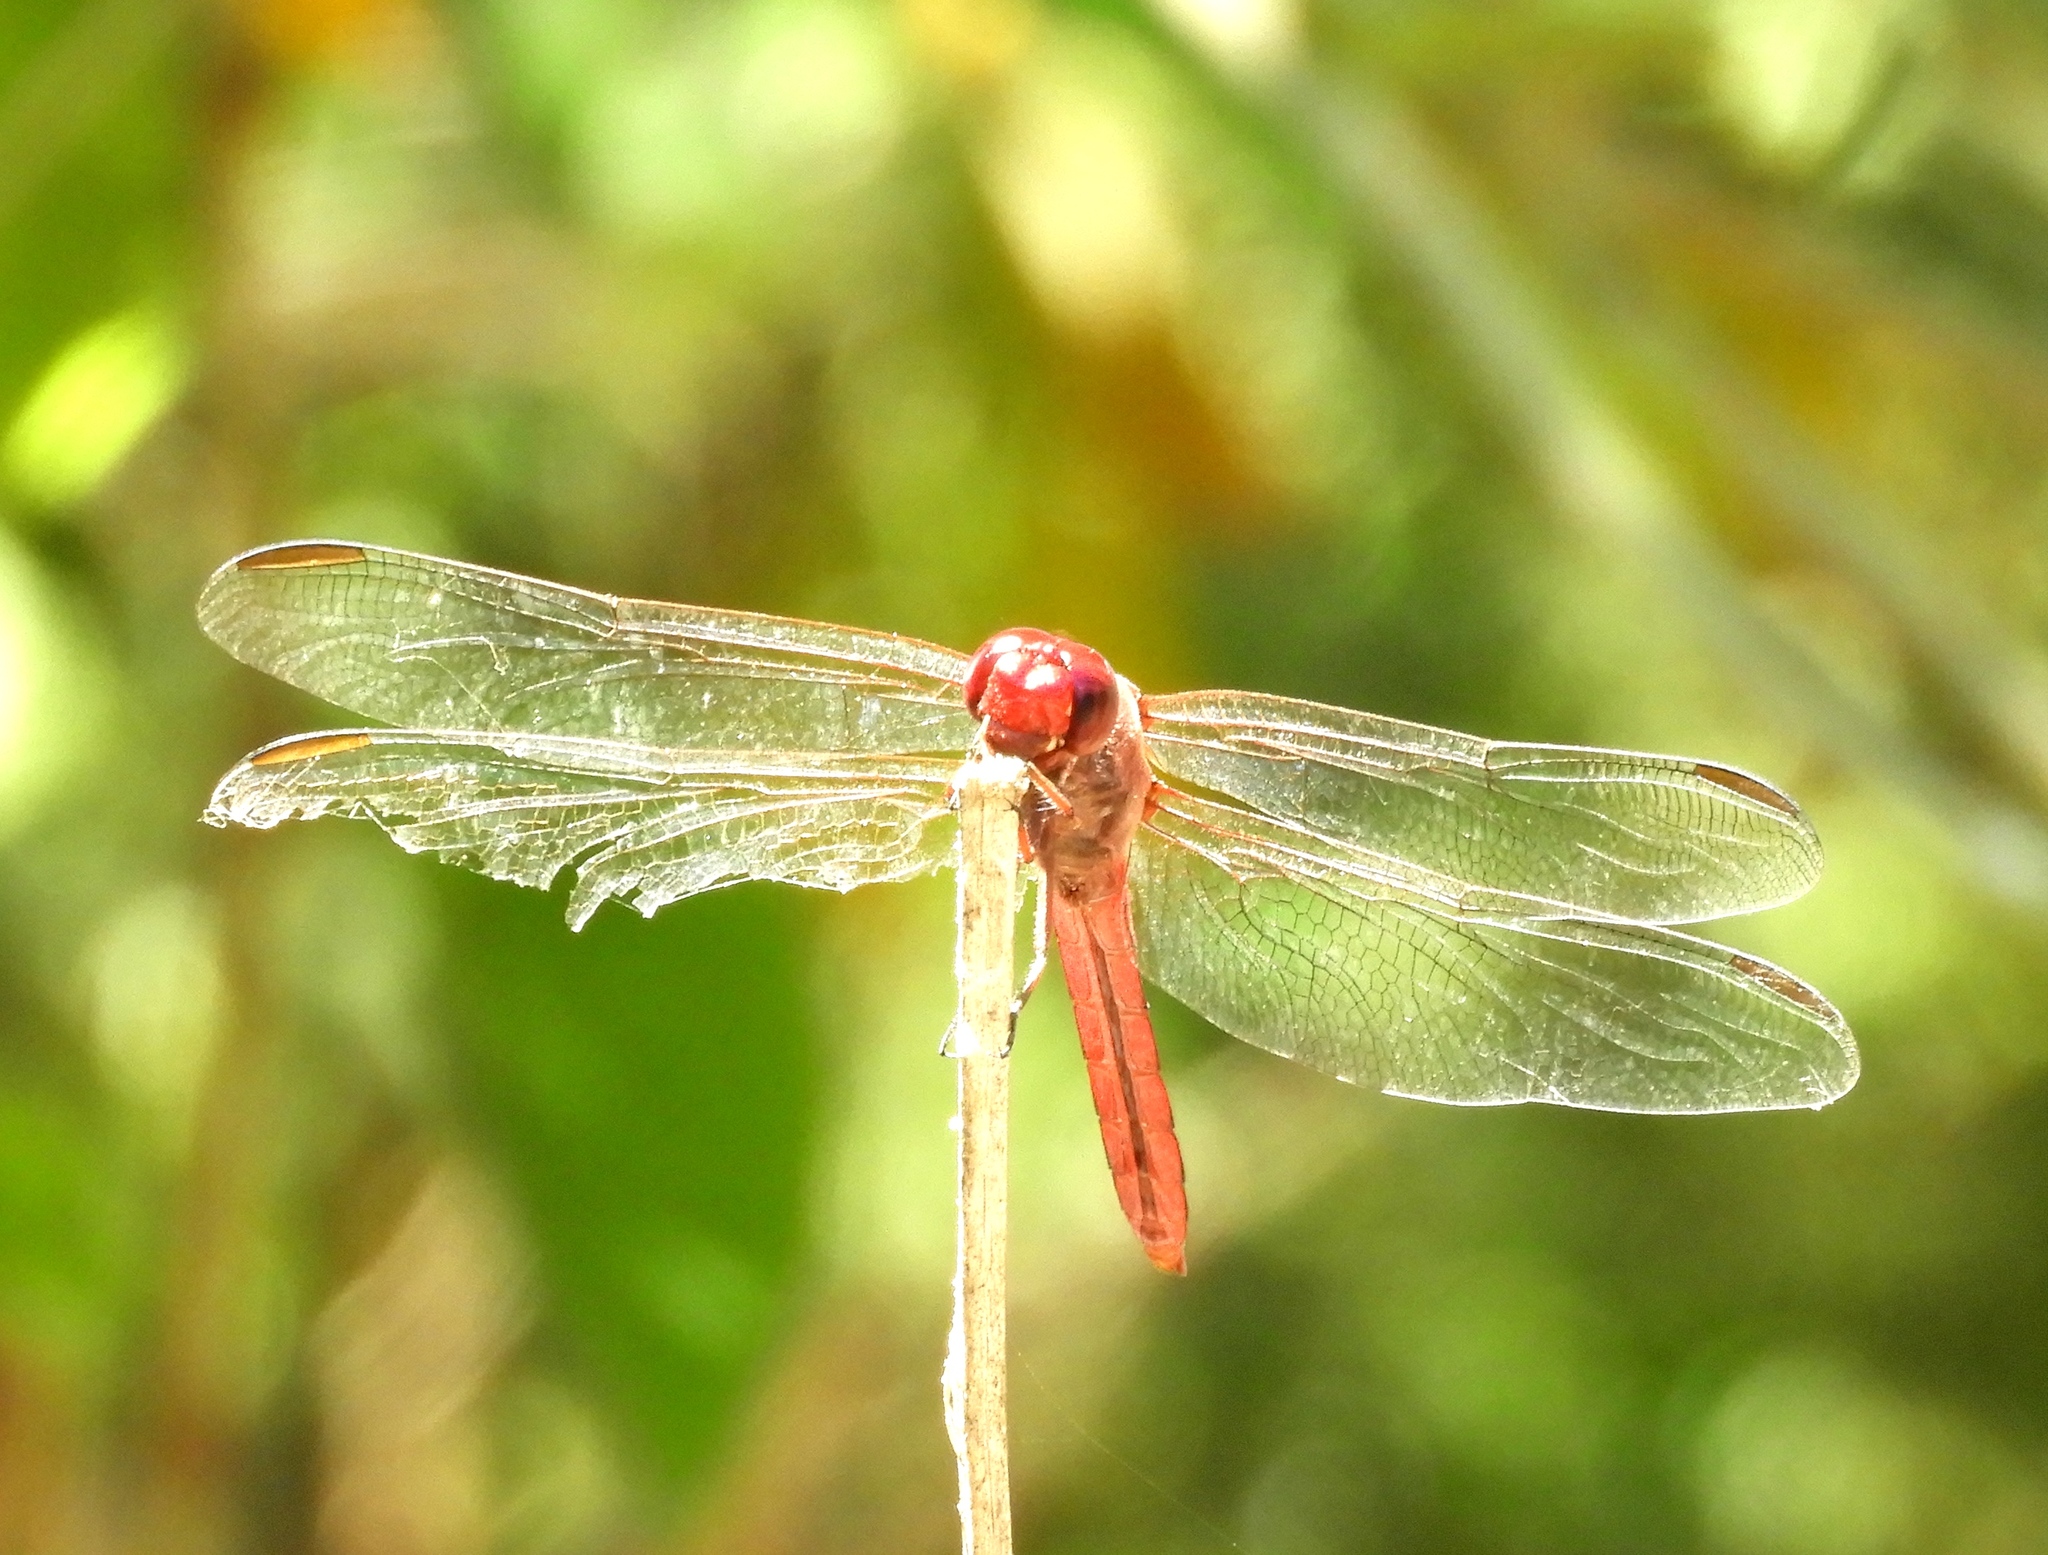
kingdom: Animalia
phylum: Arthropoda
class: Insecta
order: Odonata
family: Libellulidae
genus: Orthemis
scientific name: Orthemis discolor
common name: Carmine skimmer
